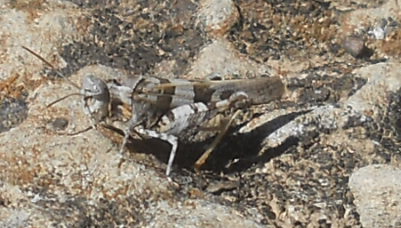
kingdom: Animalia
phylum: Arthropoda
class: Insecta
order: Orthoptera
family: Acrididae
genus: Oedipoda
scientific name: Oedipoda miniata
